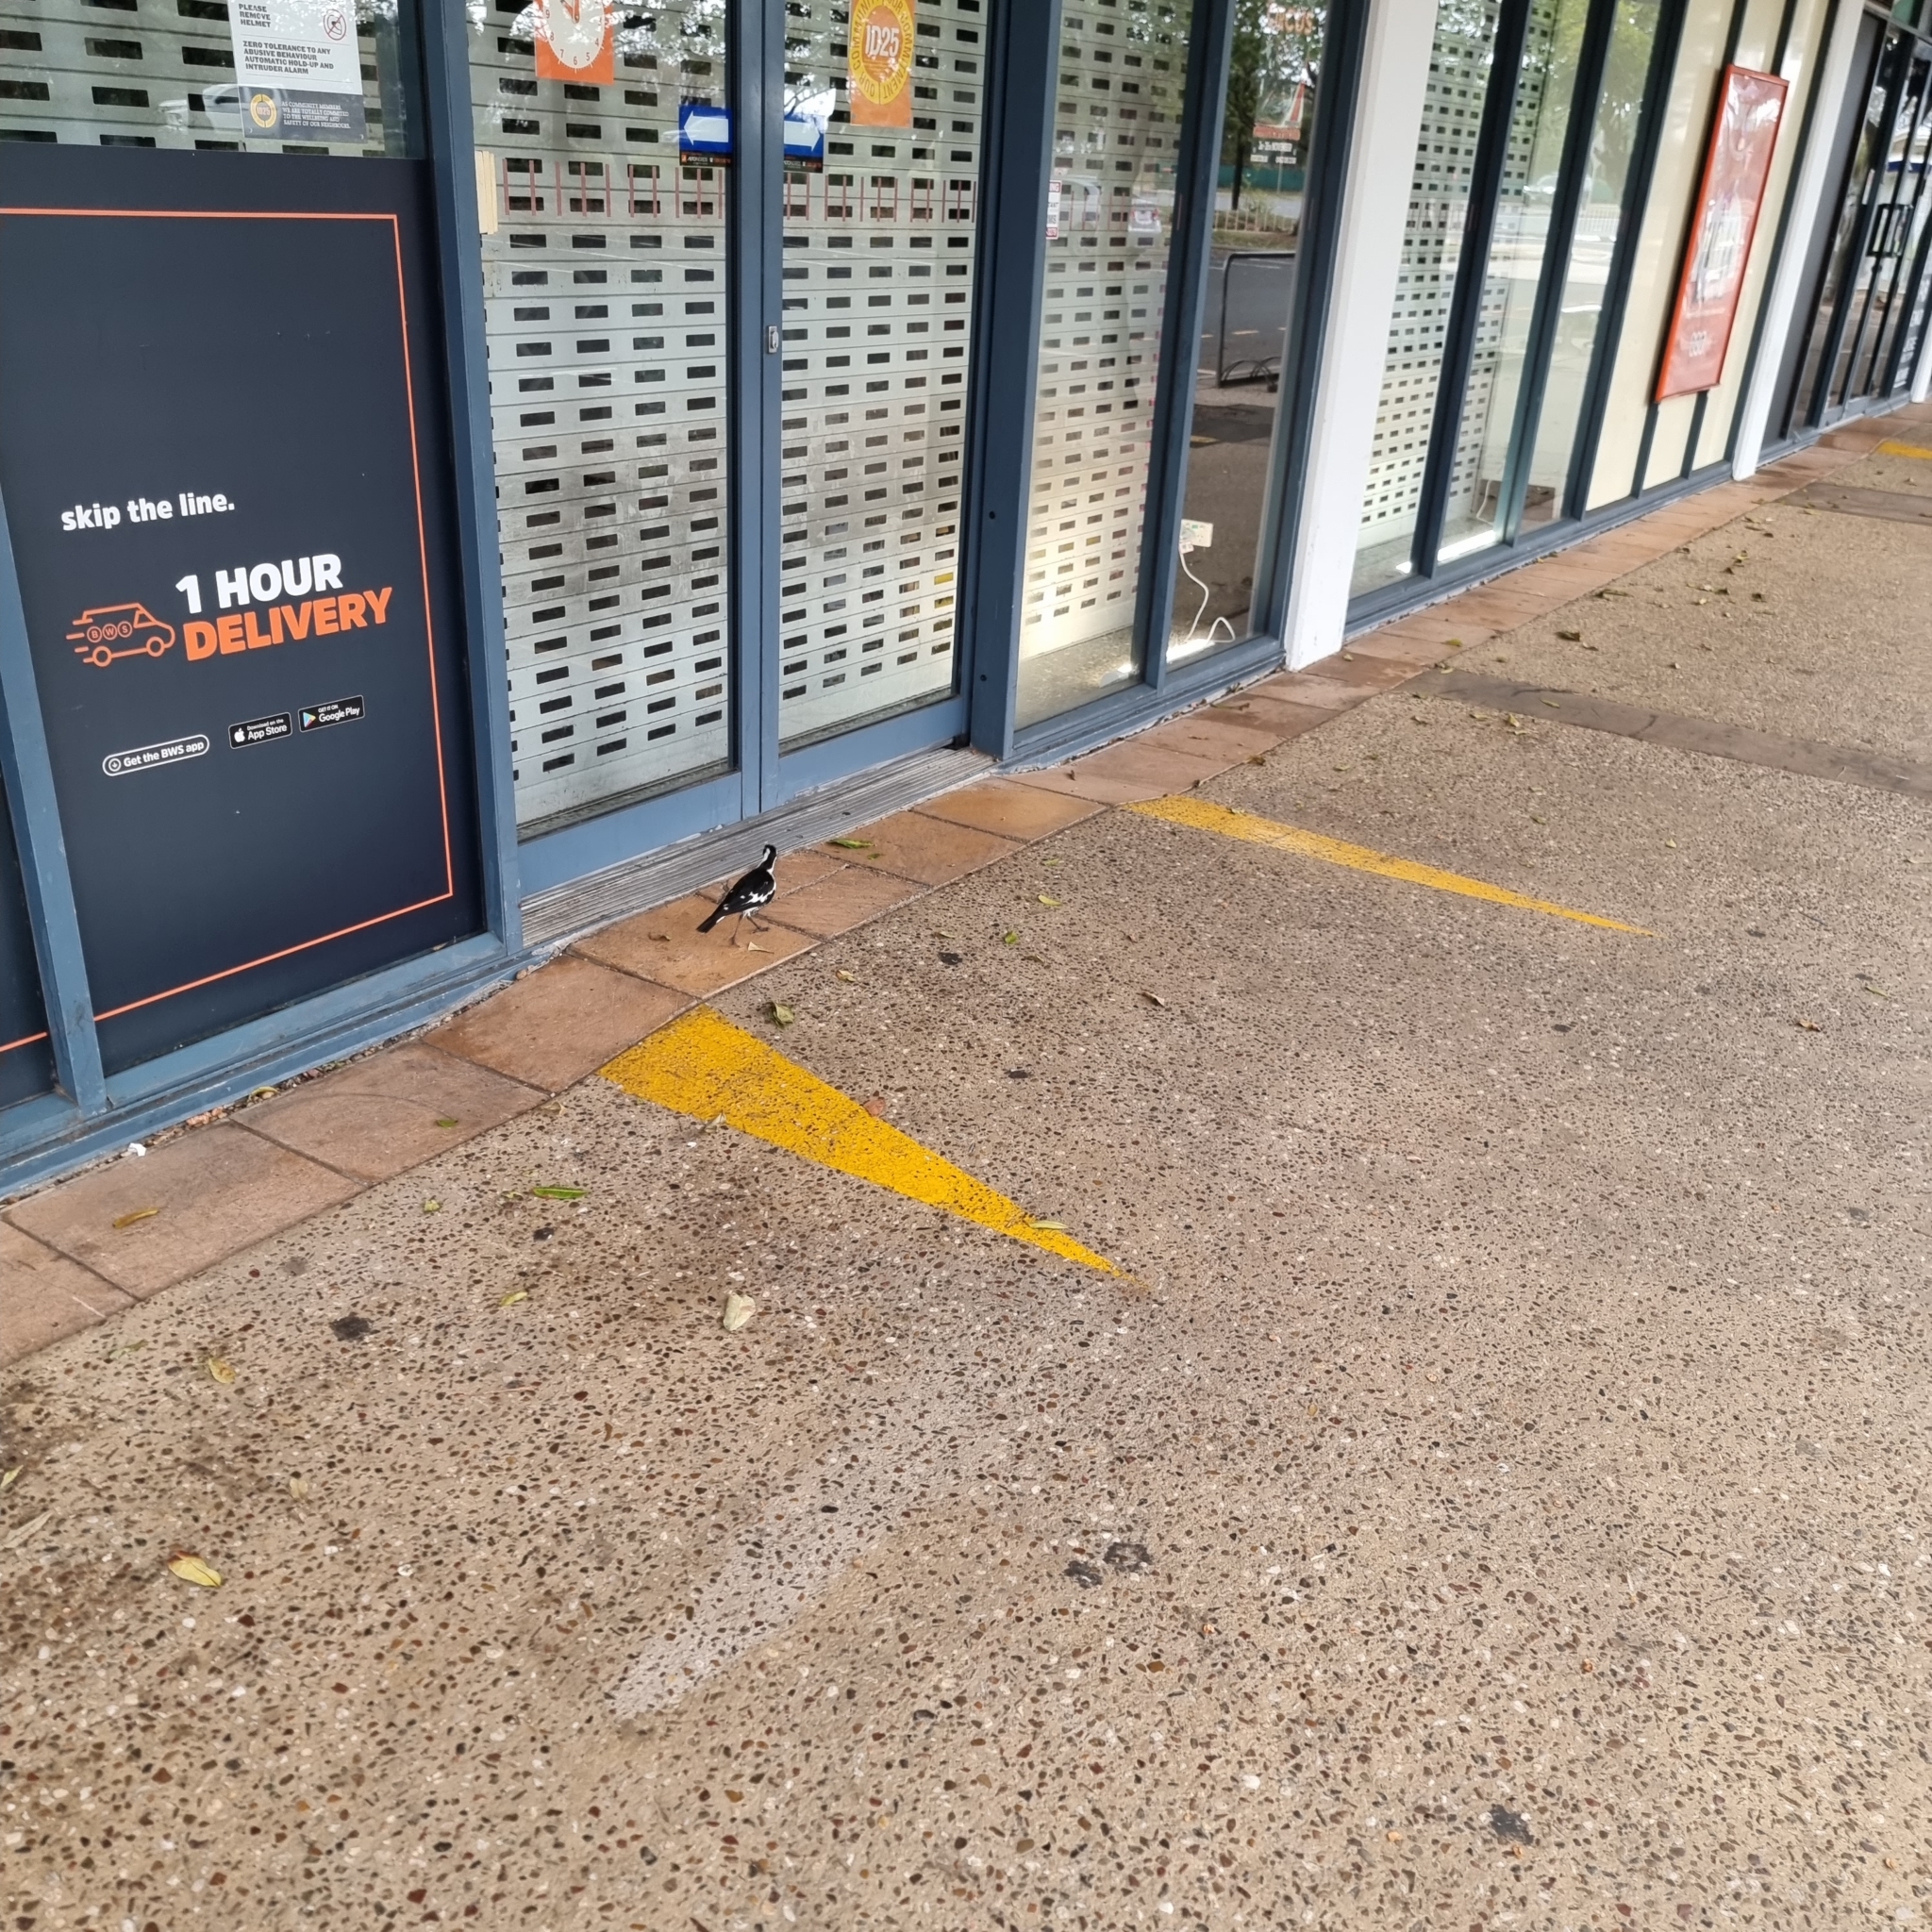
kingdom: Animalia
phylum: Chordata
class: Aves
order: Passeriformes
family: Monarchidae
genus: Grallina
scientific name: Grallina cyanoleuca
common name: Magpie-lark
